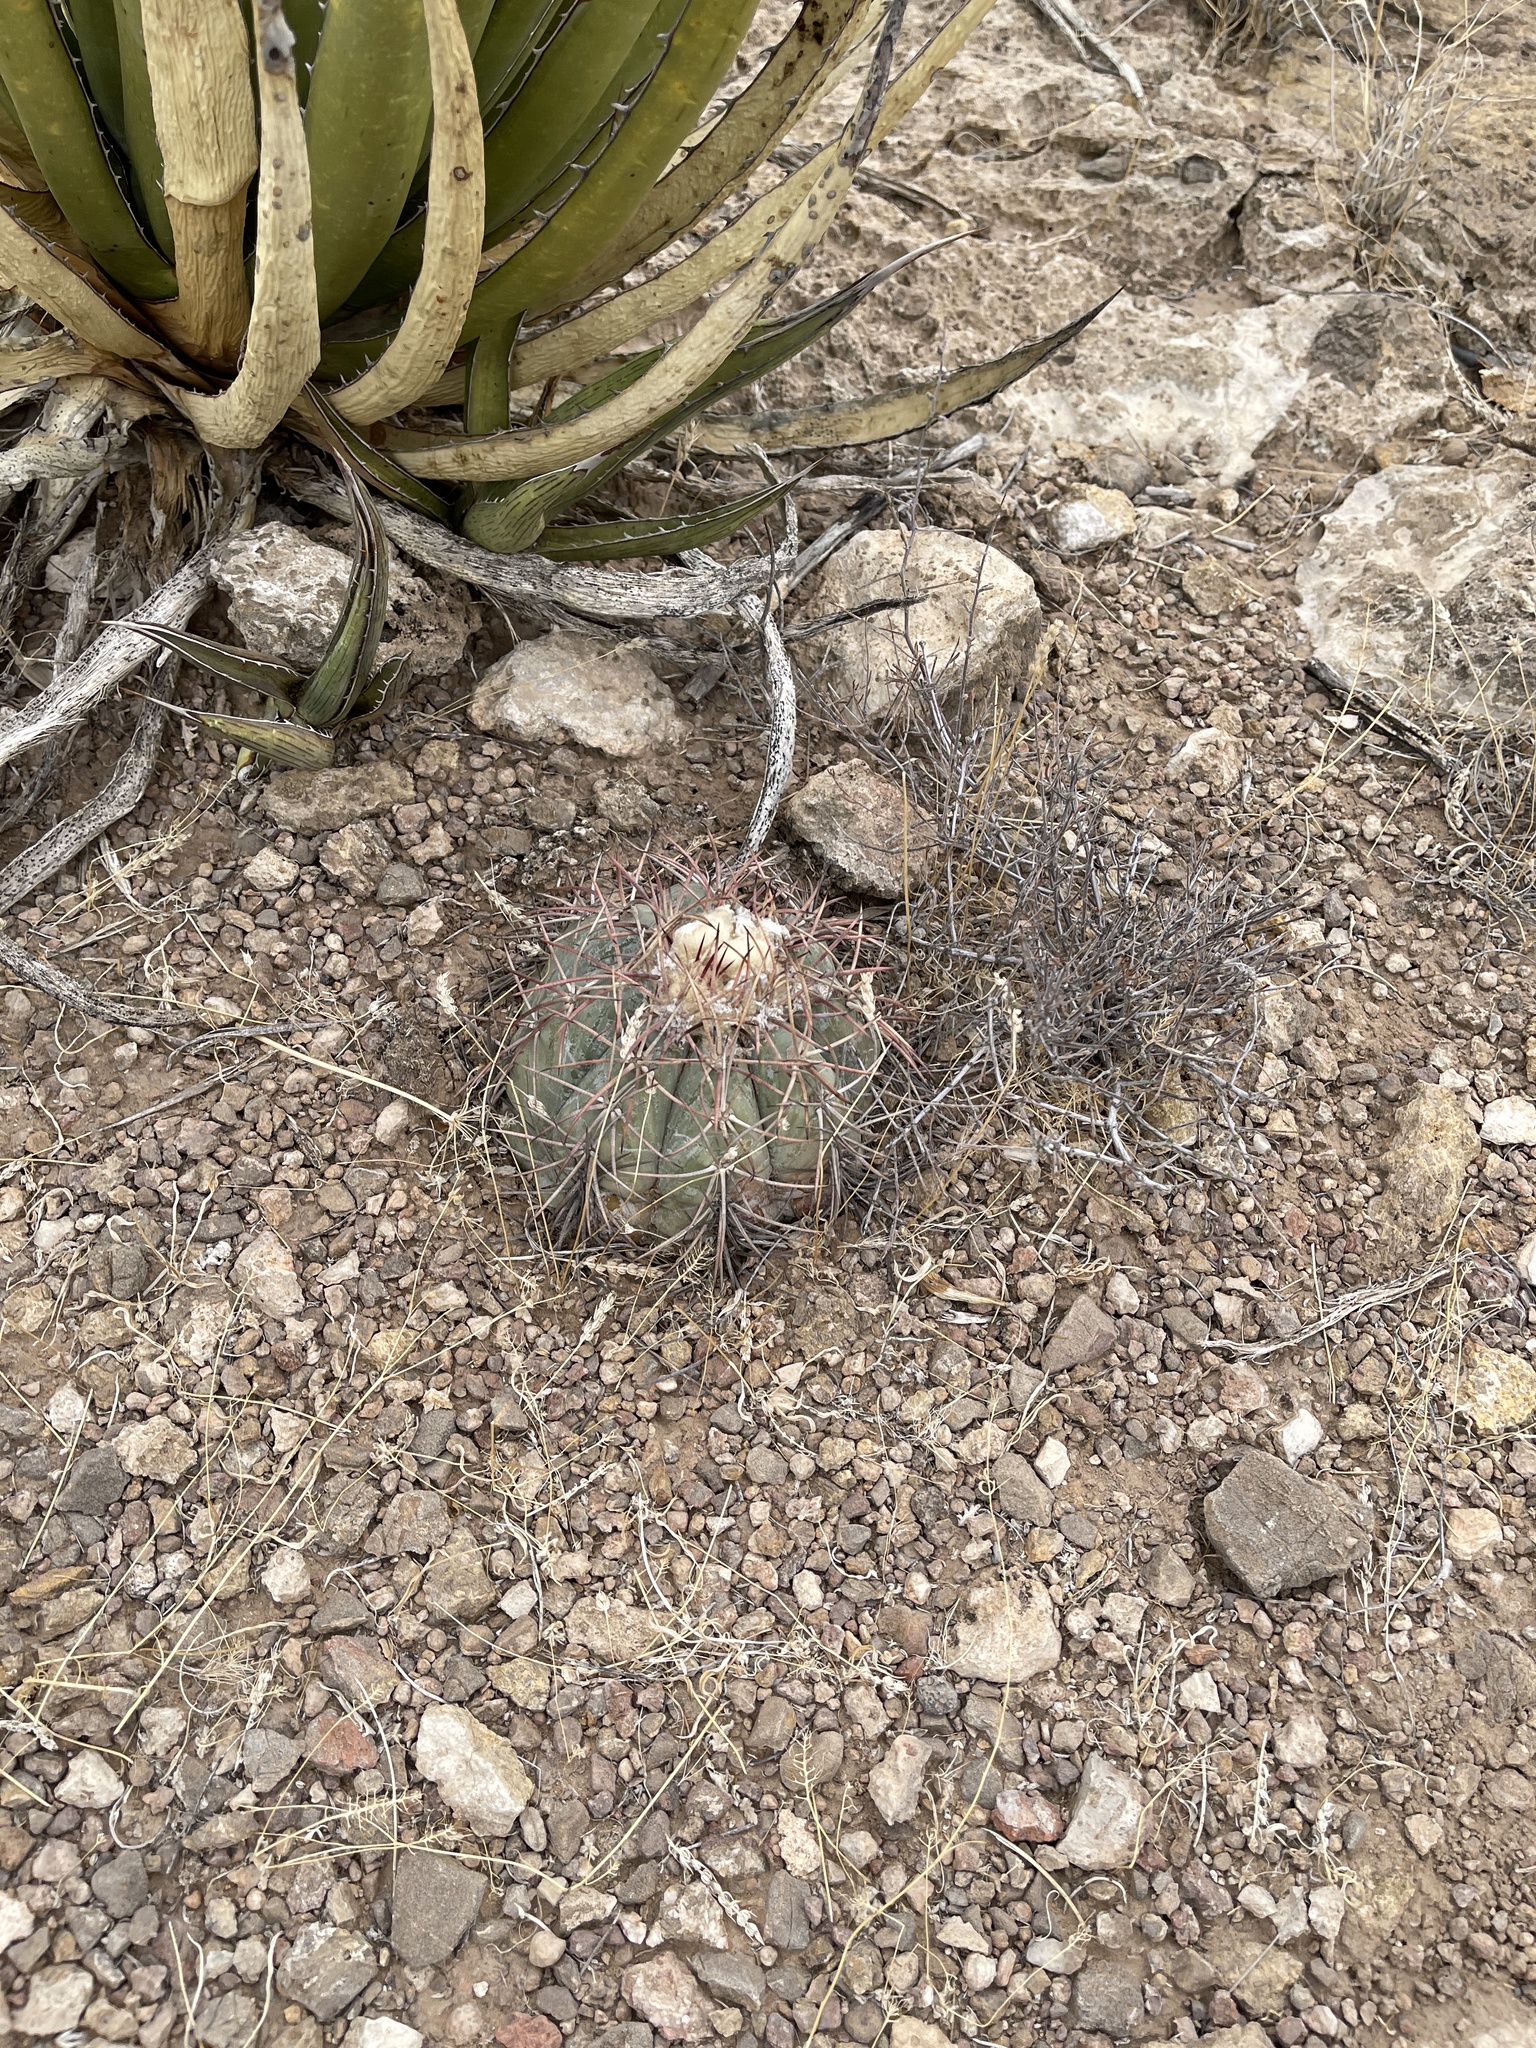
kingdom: Plantae
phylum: Tracheophyta
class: Magnoliopsida
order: Caryophyllales
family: Cactaceae
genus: Echinocactus
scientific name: Echinocactus horizonthalonius
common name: Devilshead
